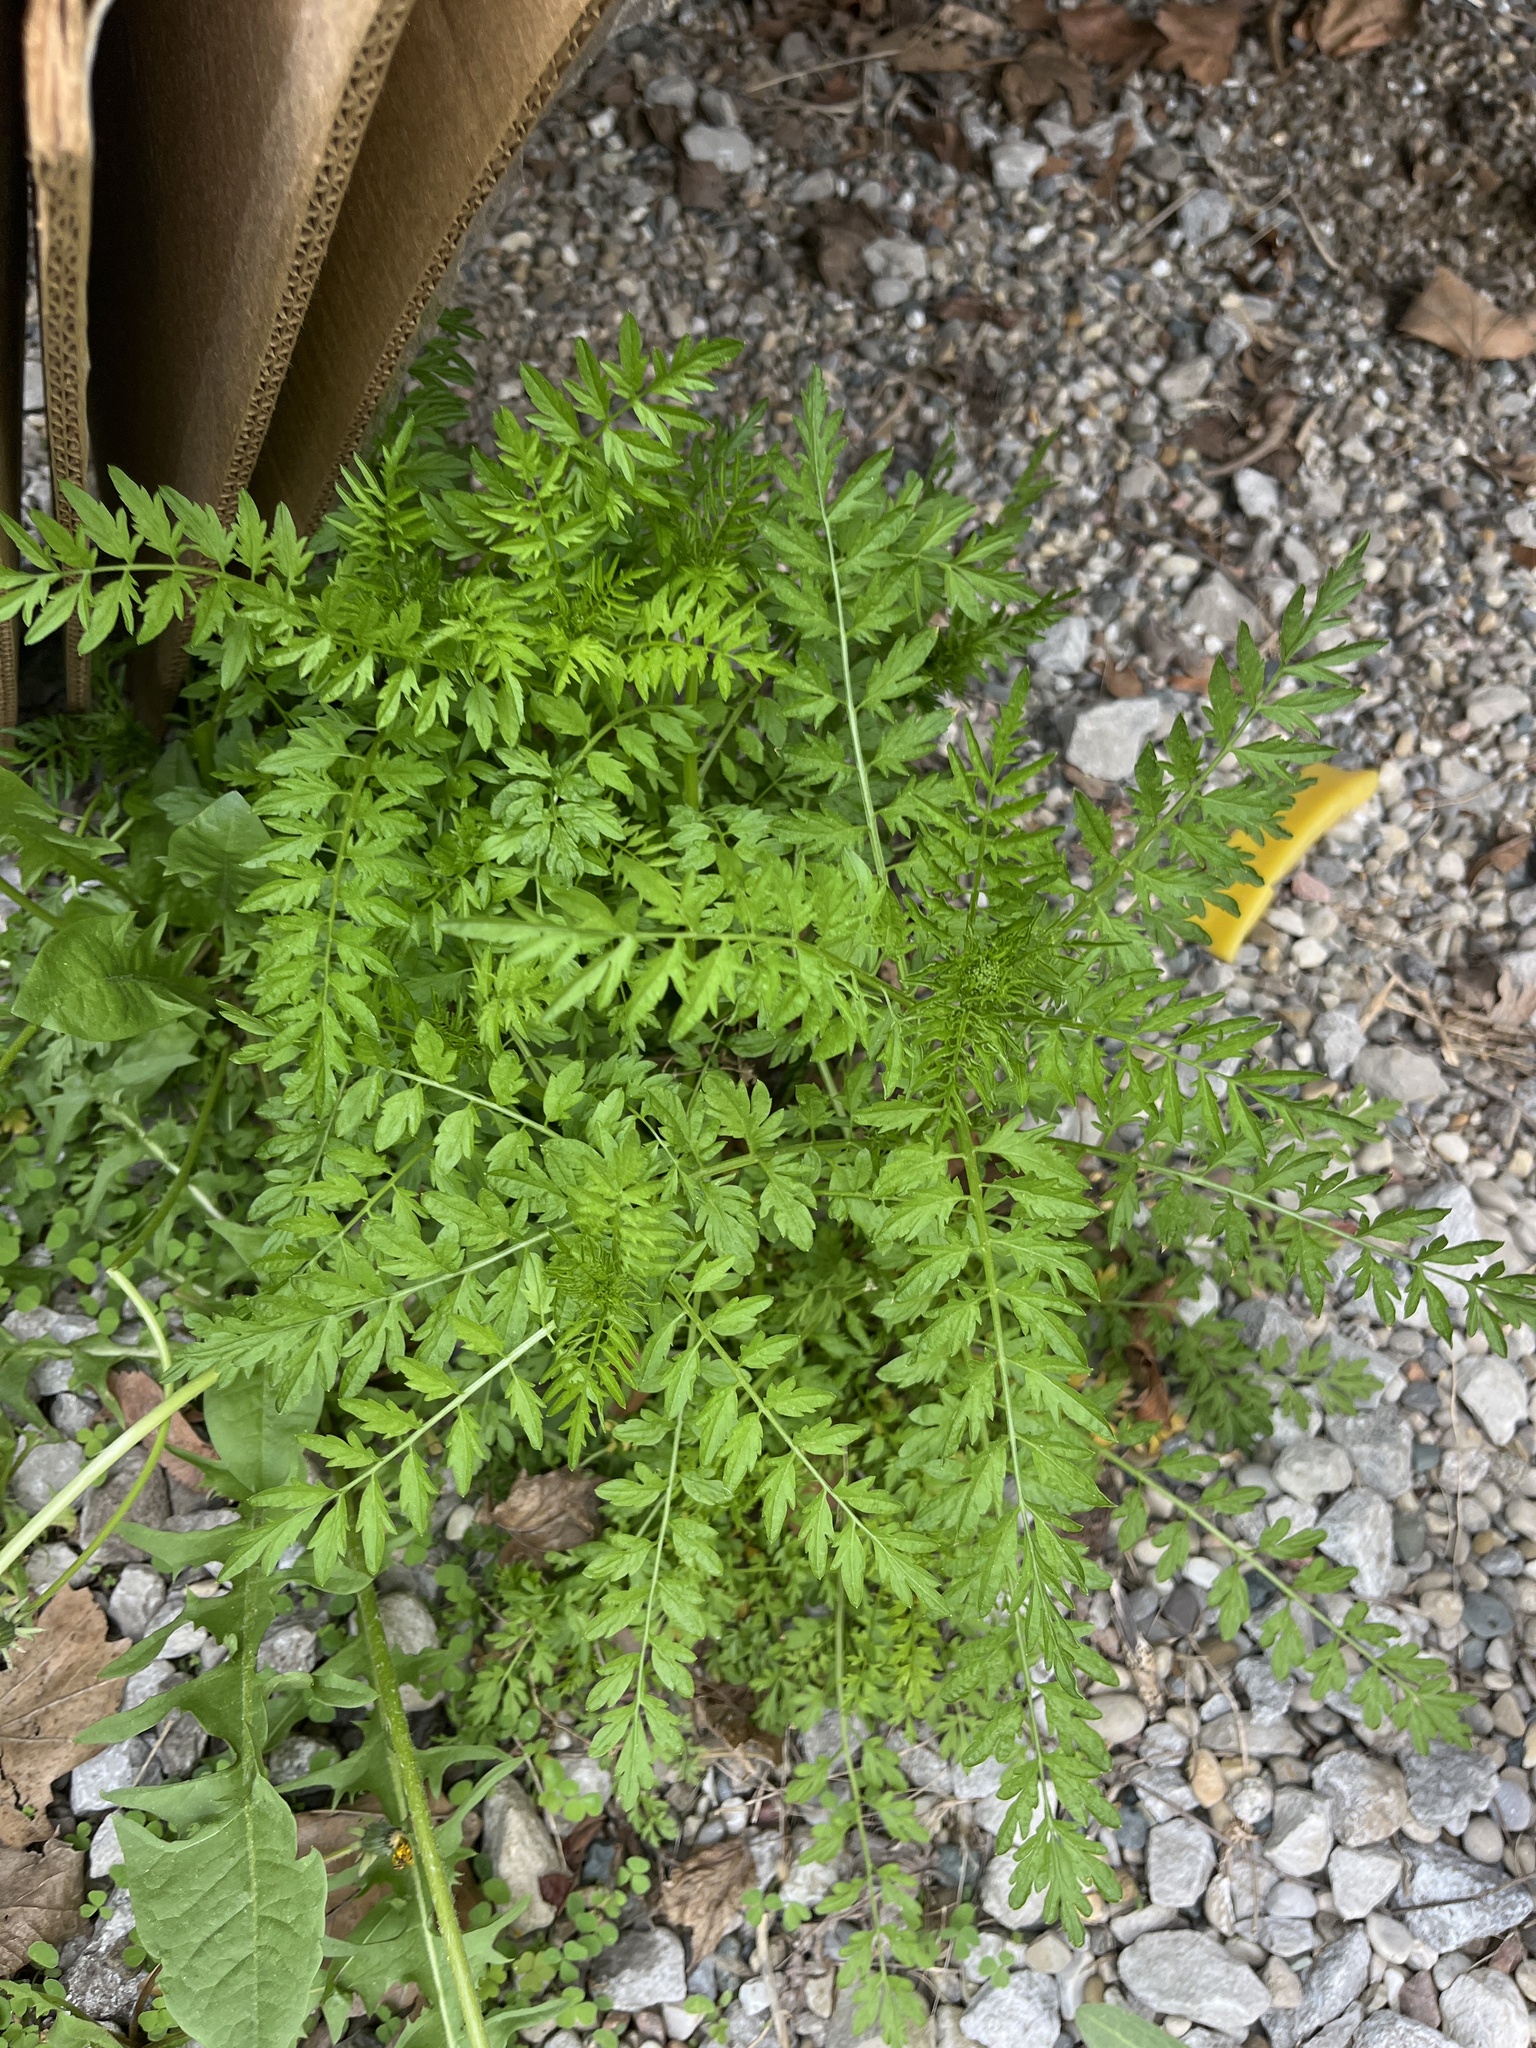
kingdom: Plantae
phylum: Tracheophyta
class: Magnoliopsida
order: Brassicales
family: Brassicaceae
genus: Cardamine
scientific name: Cardamine impatiens
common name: Narrow-leaved bitter-cress
